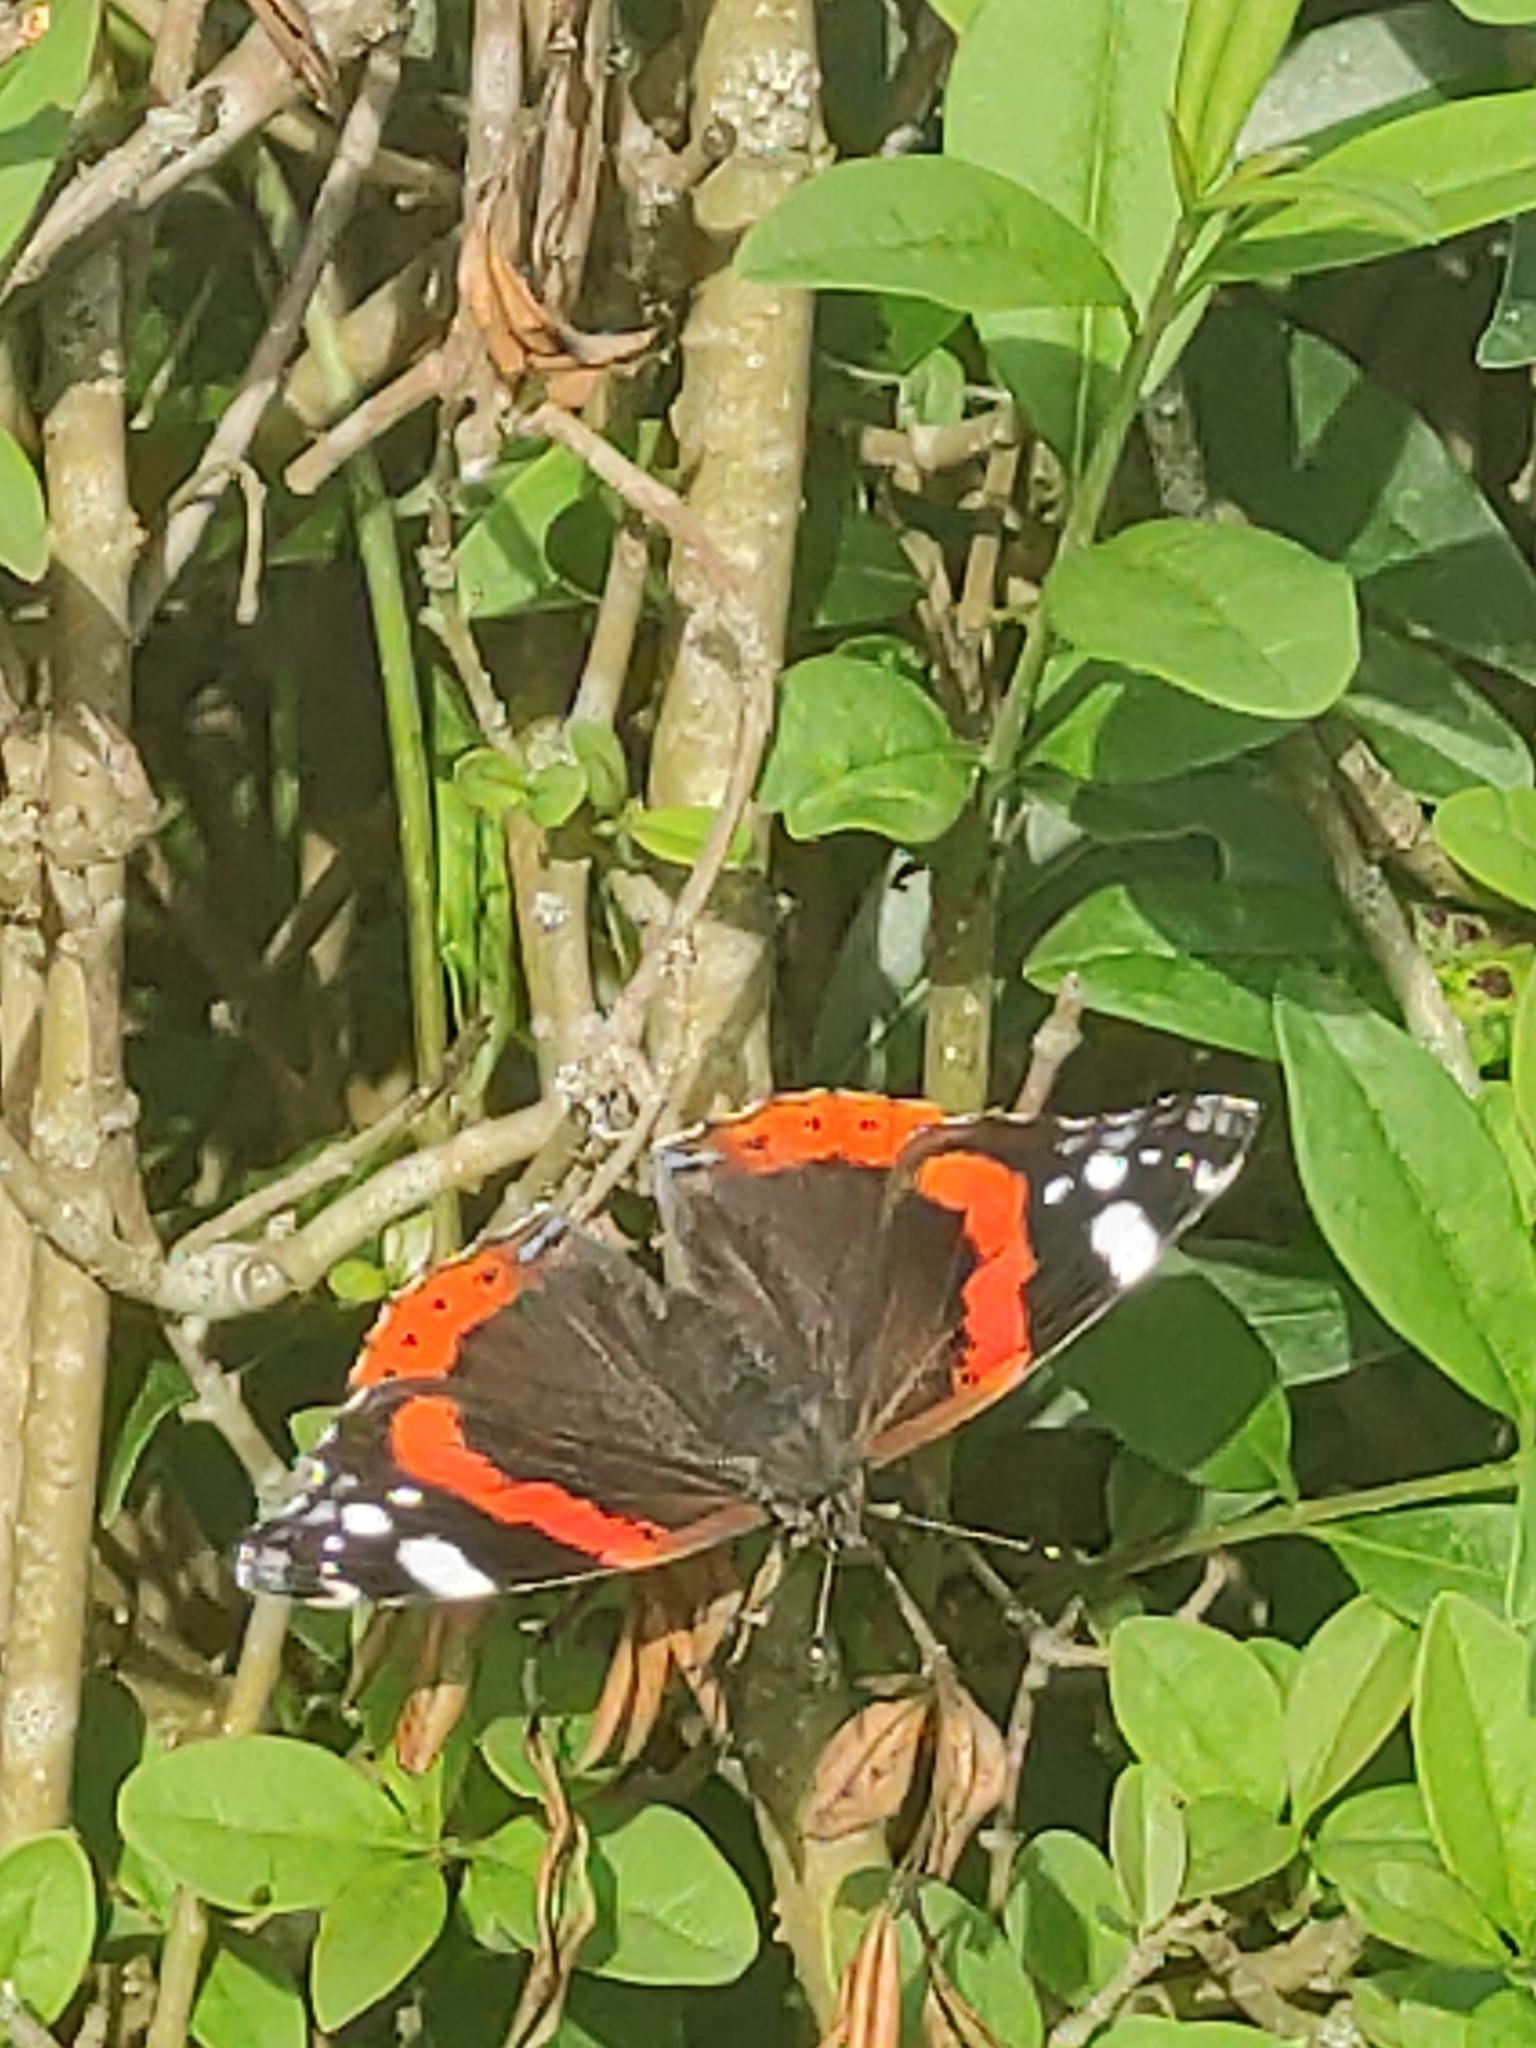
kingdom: Animalia
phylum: Arthropoda
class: Insecta
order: Lepidoptera
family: Nymphalidae
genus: Vanessa
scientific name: Vanessa atalanta
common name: Red admiral
